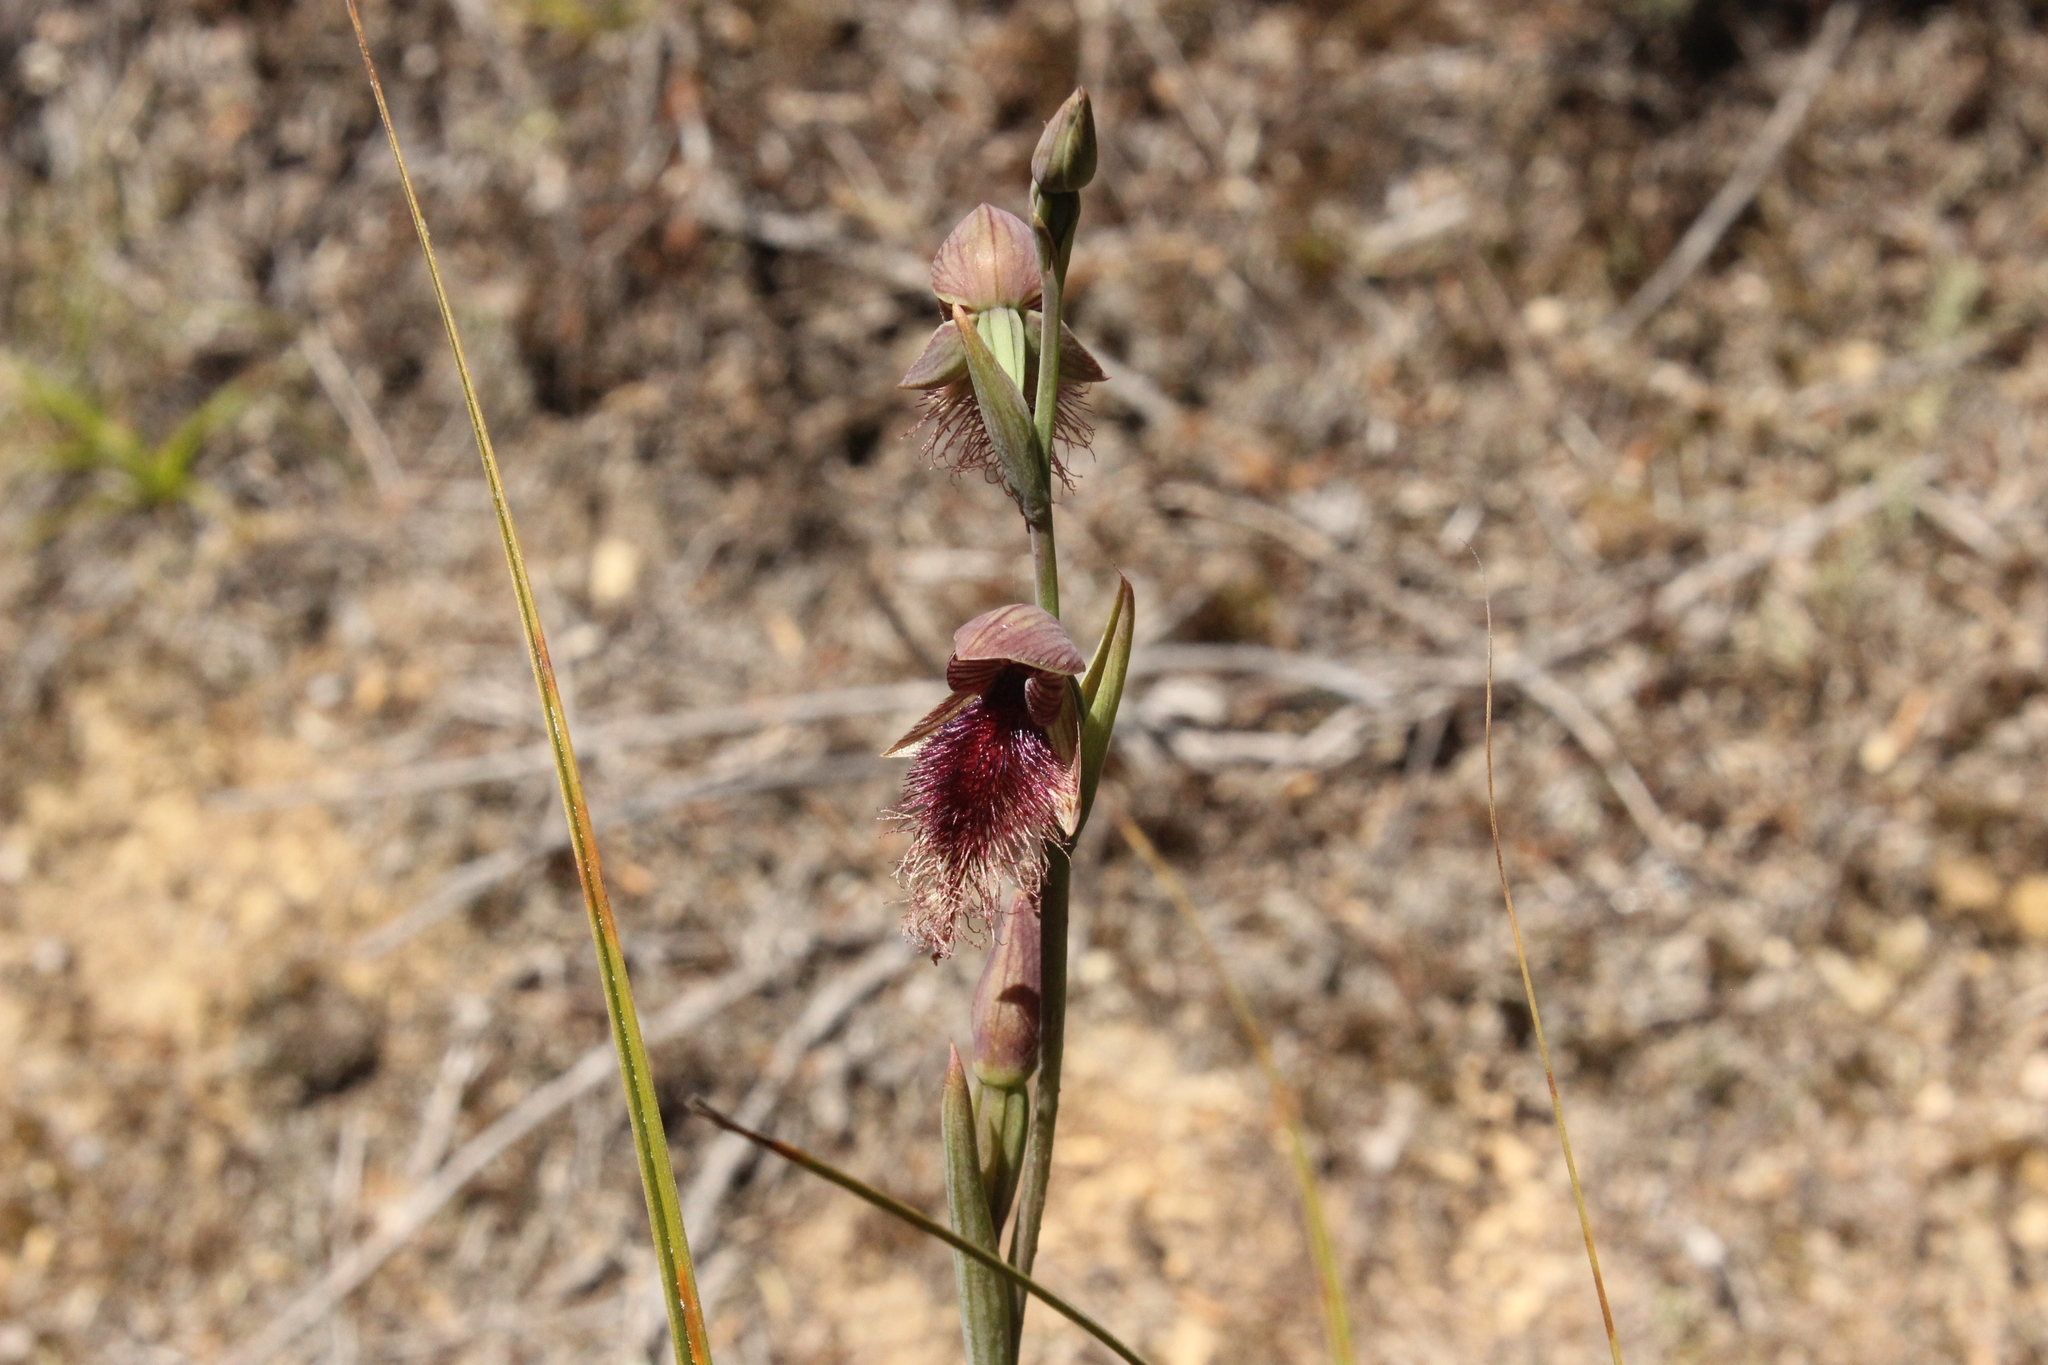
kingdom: Plantae
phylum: Tracheophyta
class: Liliopsida
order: Asparagales
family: Orchidaceae
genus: Calochilus
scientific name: Calochilus robertsonii
